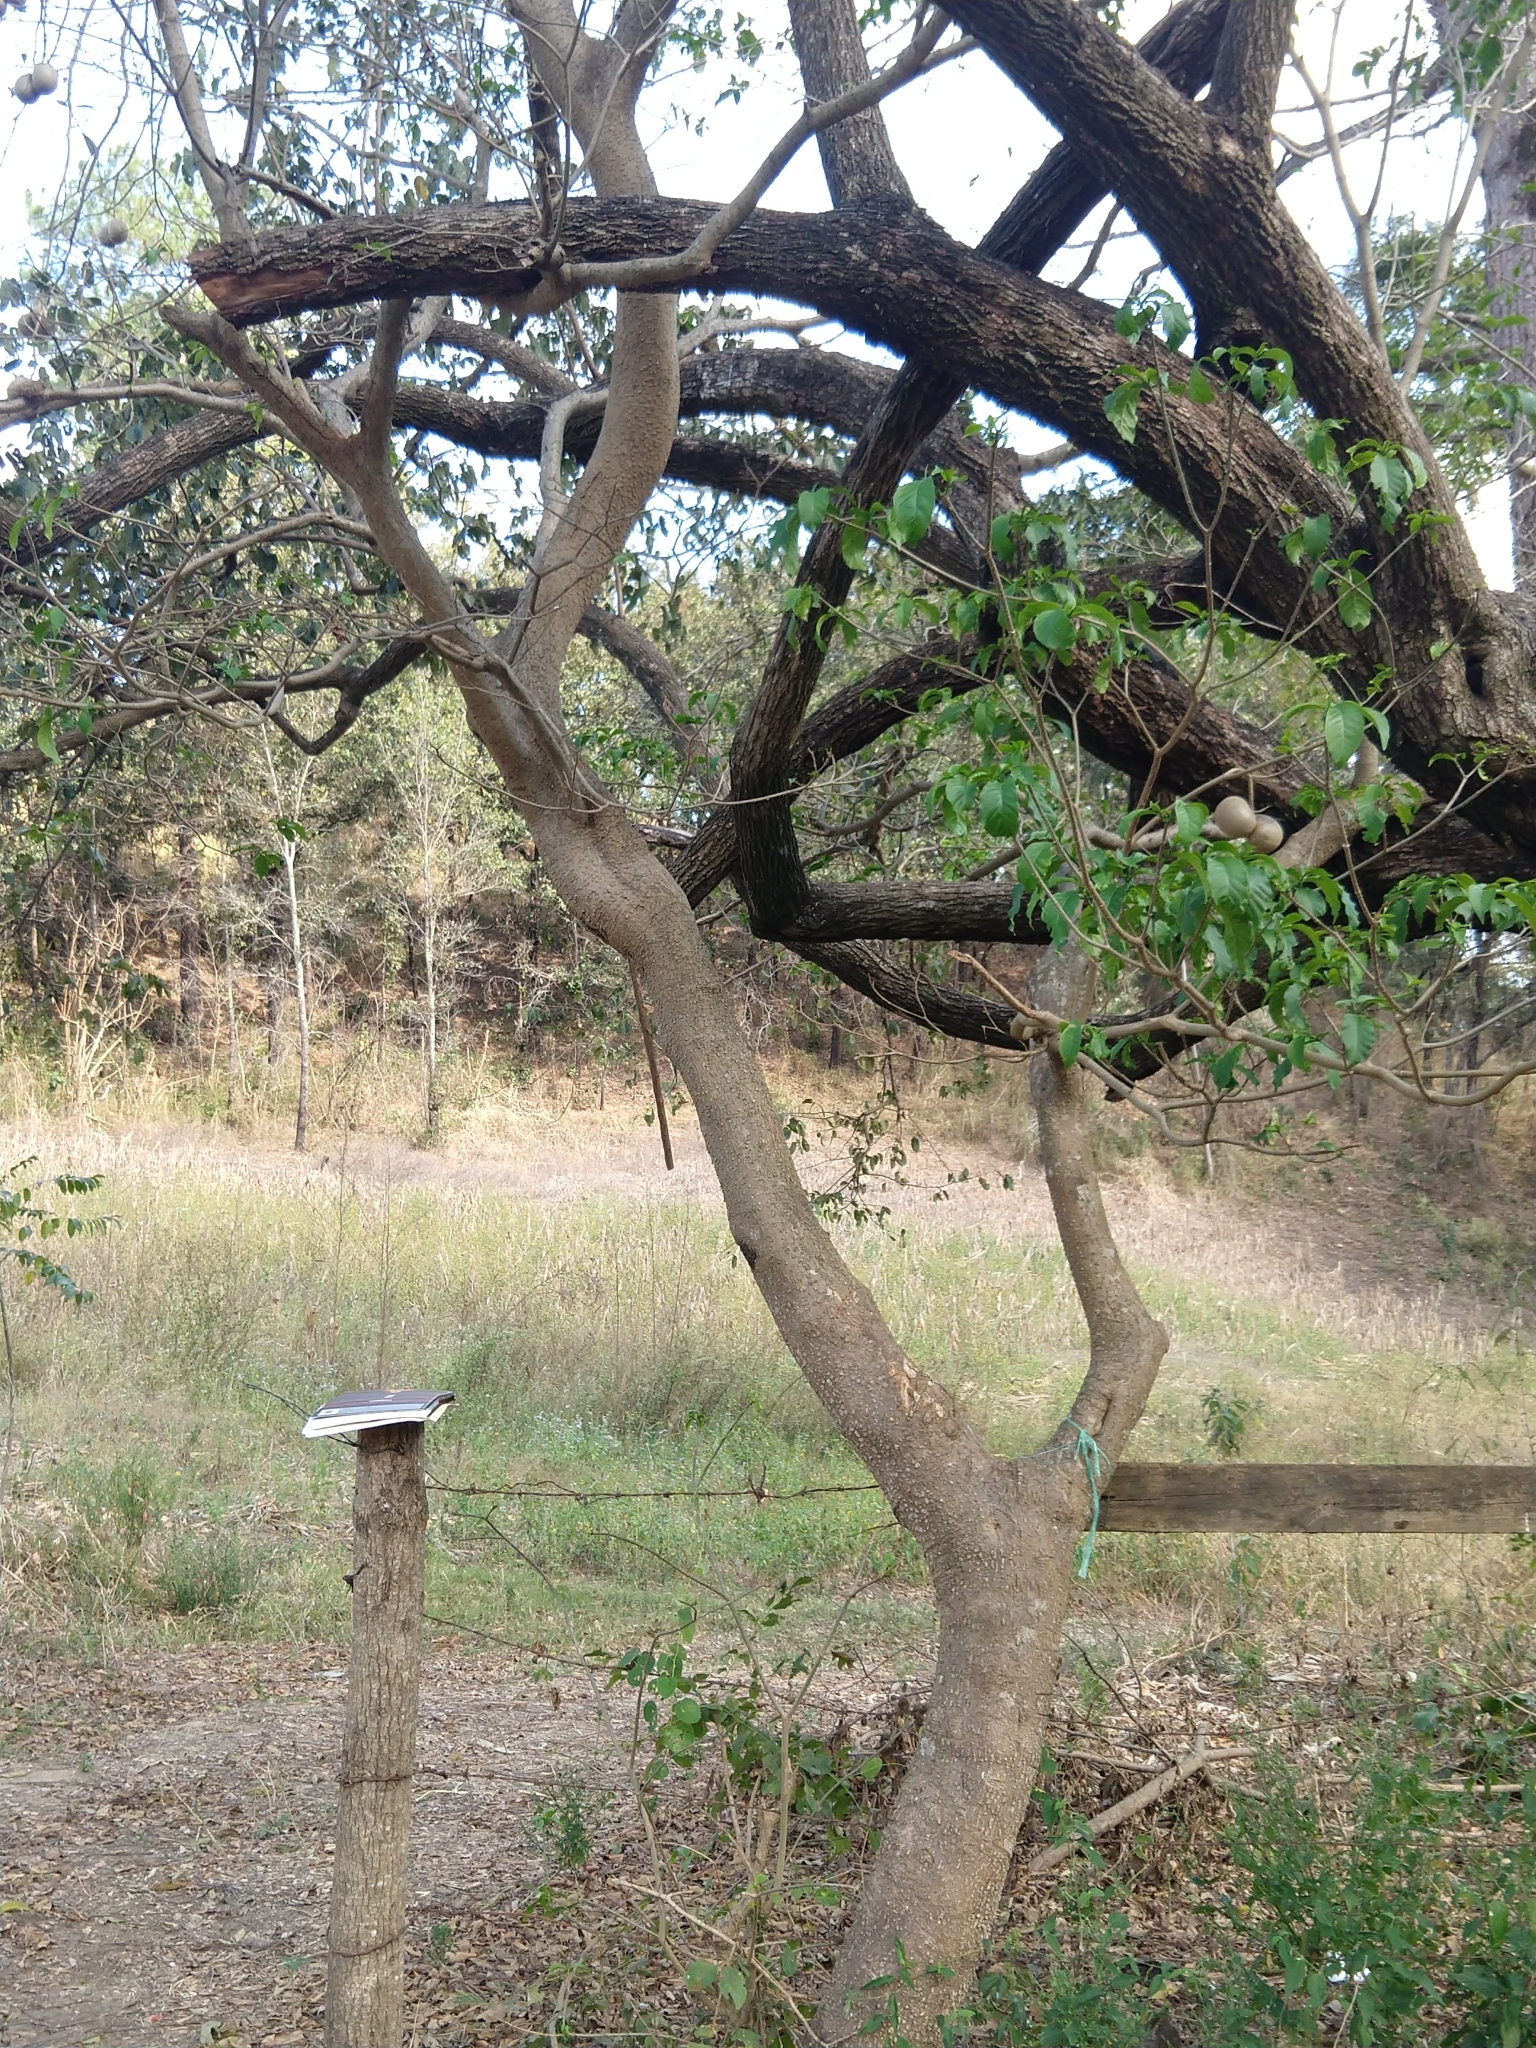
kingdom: Plantae
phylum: Tracheophyta
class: Magnoliopsida
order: Gentianales
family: Apocynaceae
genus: Tabernaemontana
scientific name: Tabernaemontana donnell-smithii
